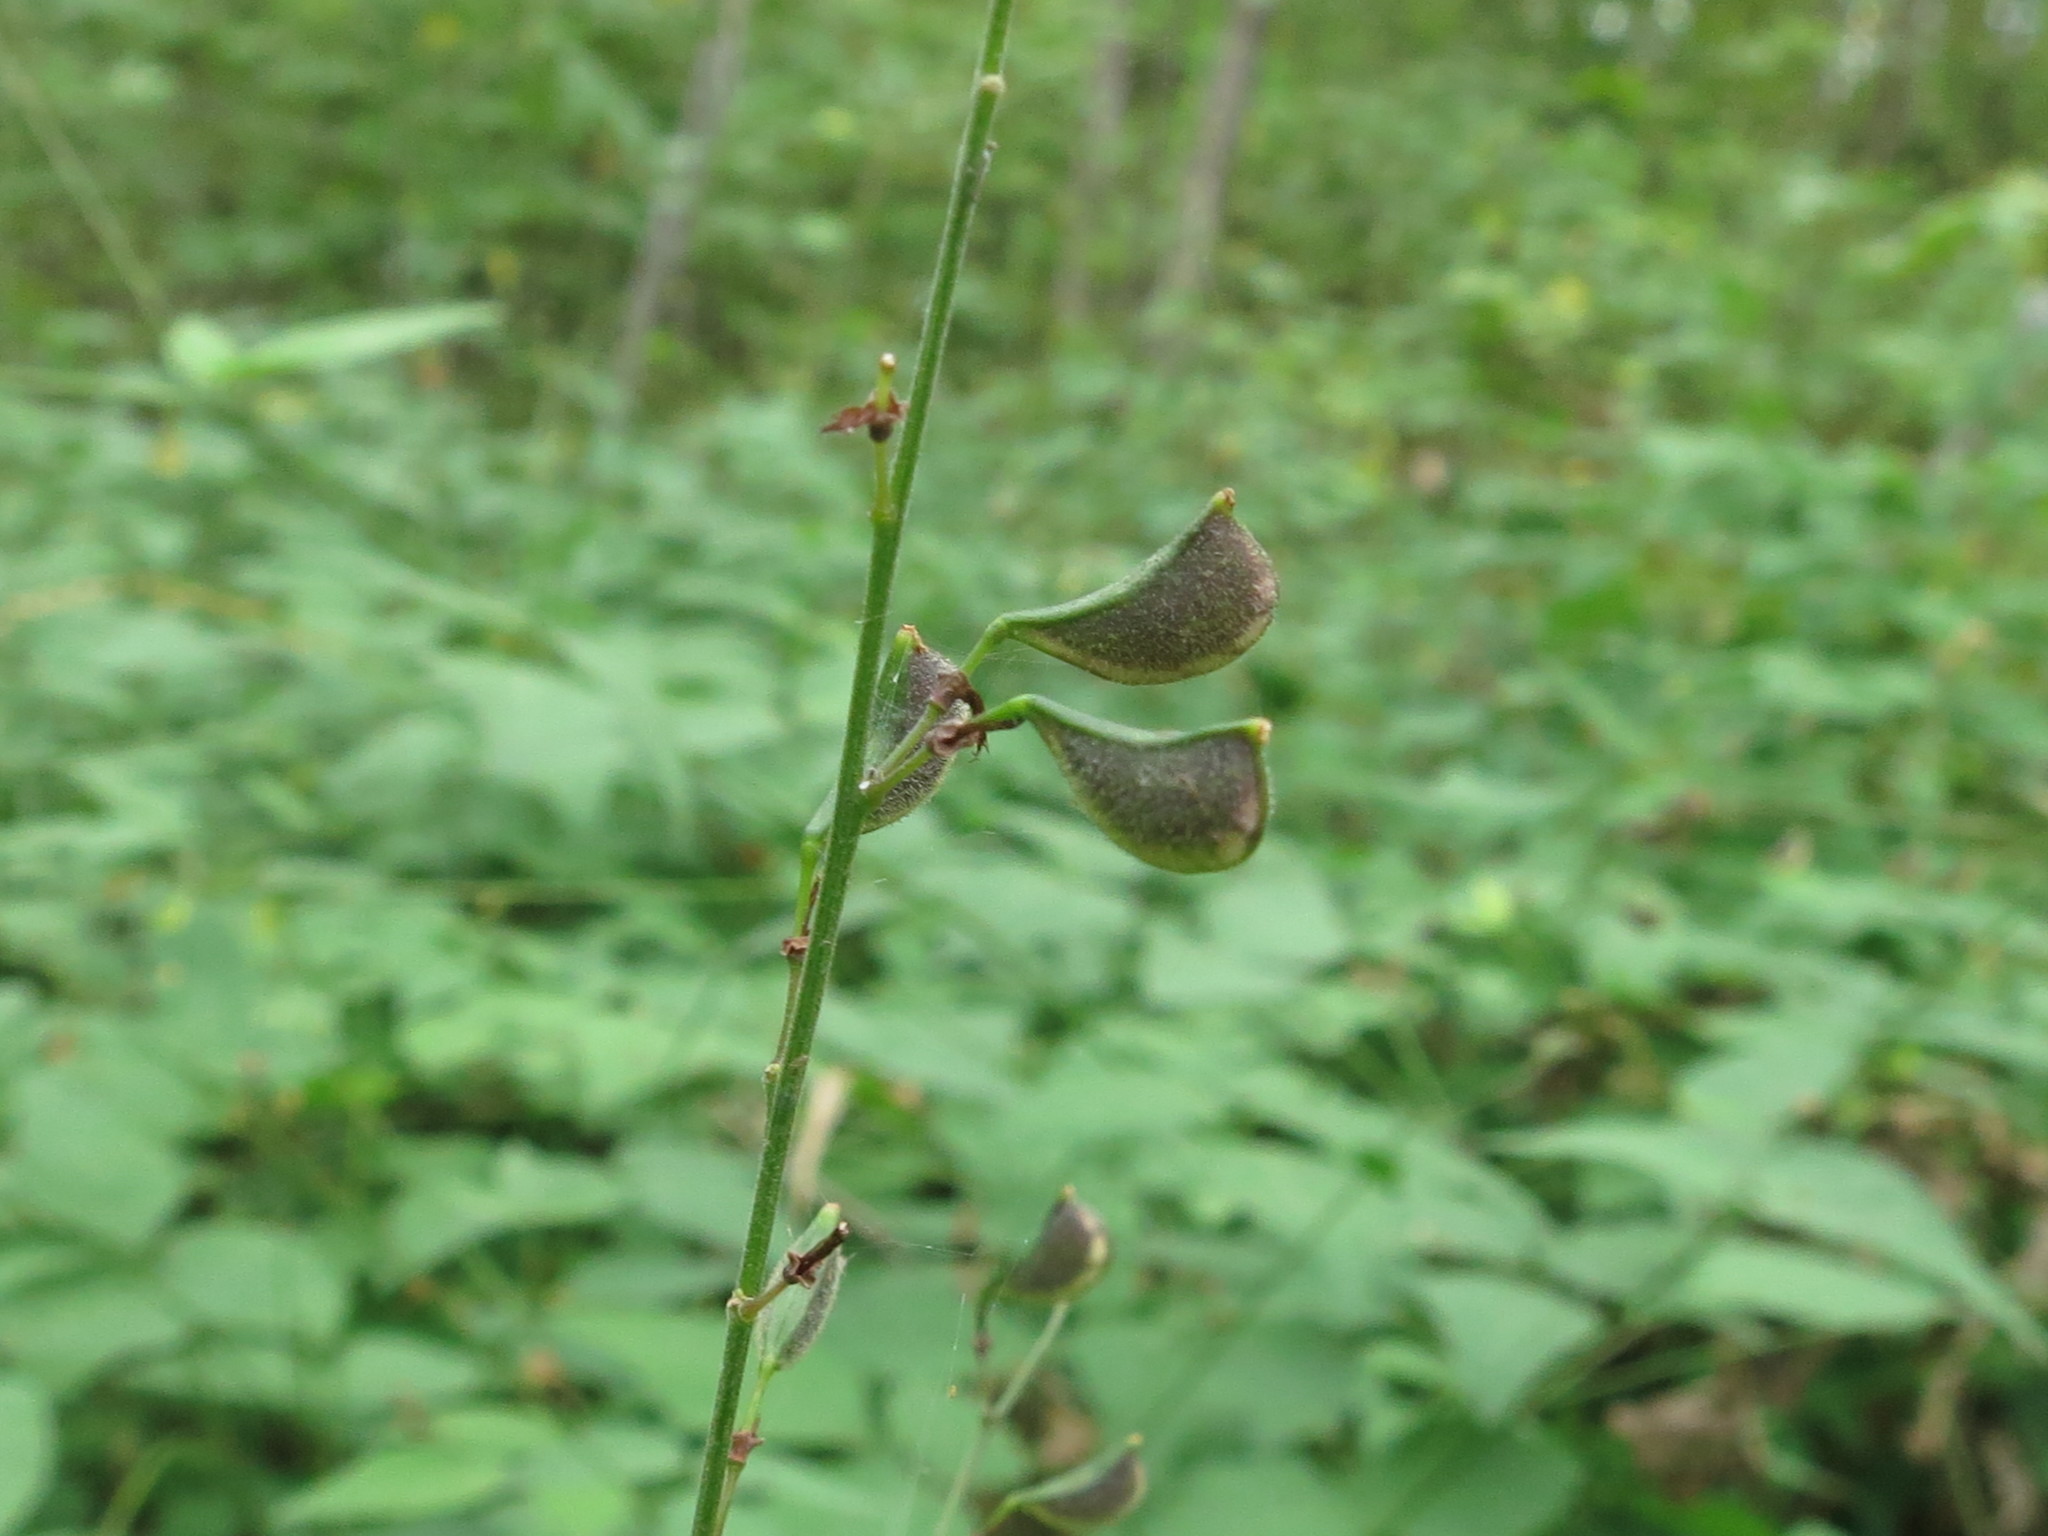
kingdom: Plantae
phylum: Tracheophyta
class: Magnoliopsida
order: Fabales
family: Fabaceae
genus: Hylodesmum
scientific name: Hylodesmum podocarpum
